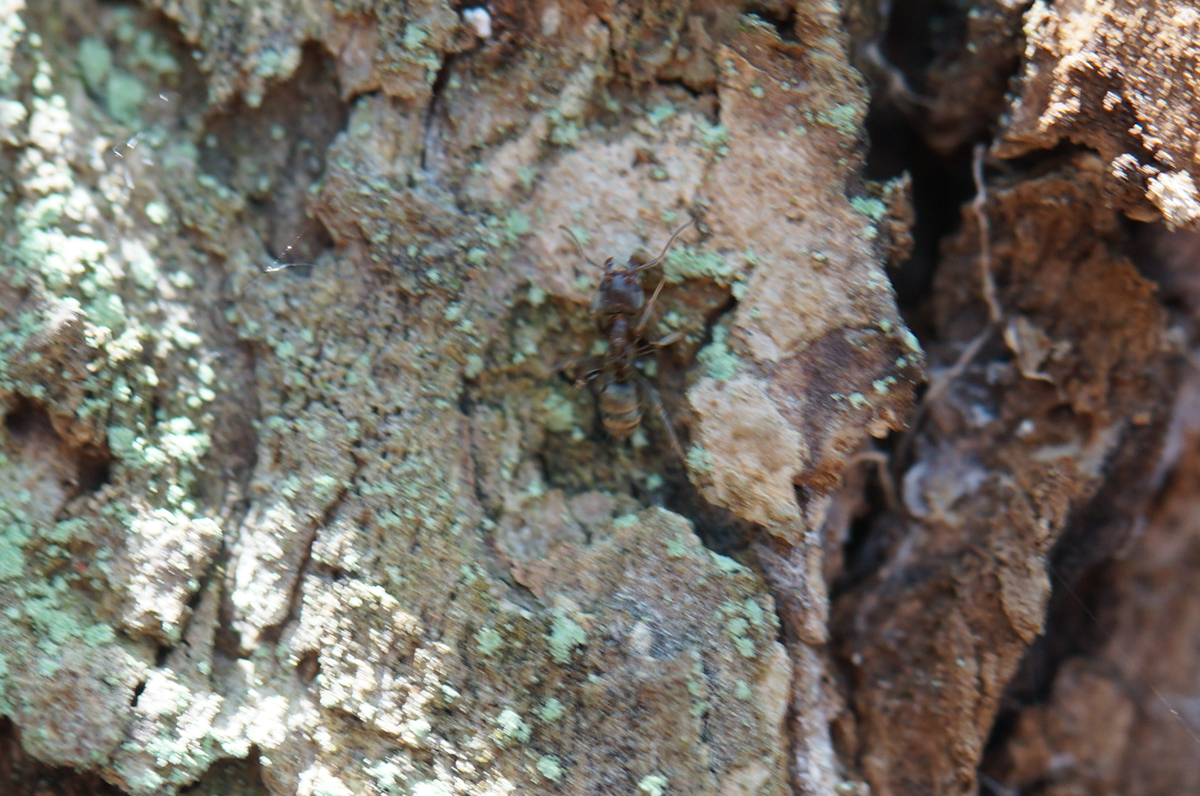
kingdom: Animalia
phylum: Arthropoda
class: Insecta
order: Hymenoptera
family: Formicidae
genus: Liometopum
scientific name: Liometopum sinense
